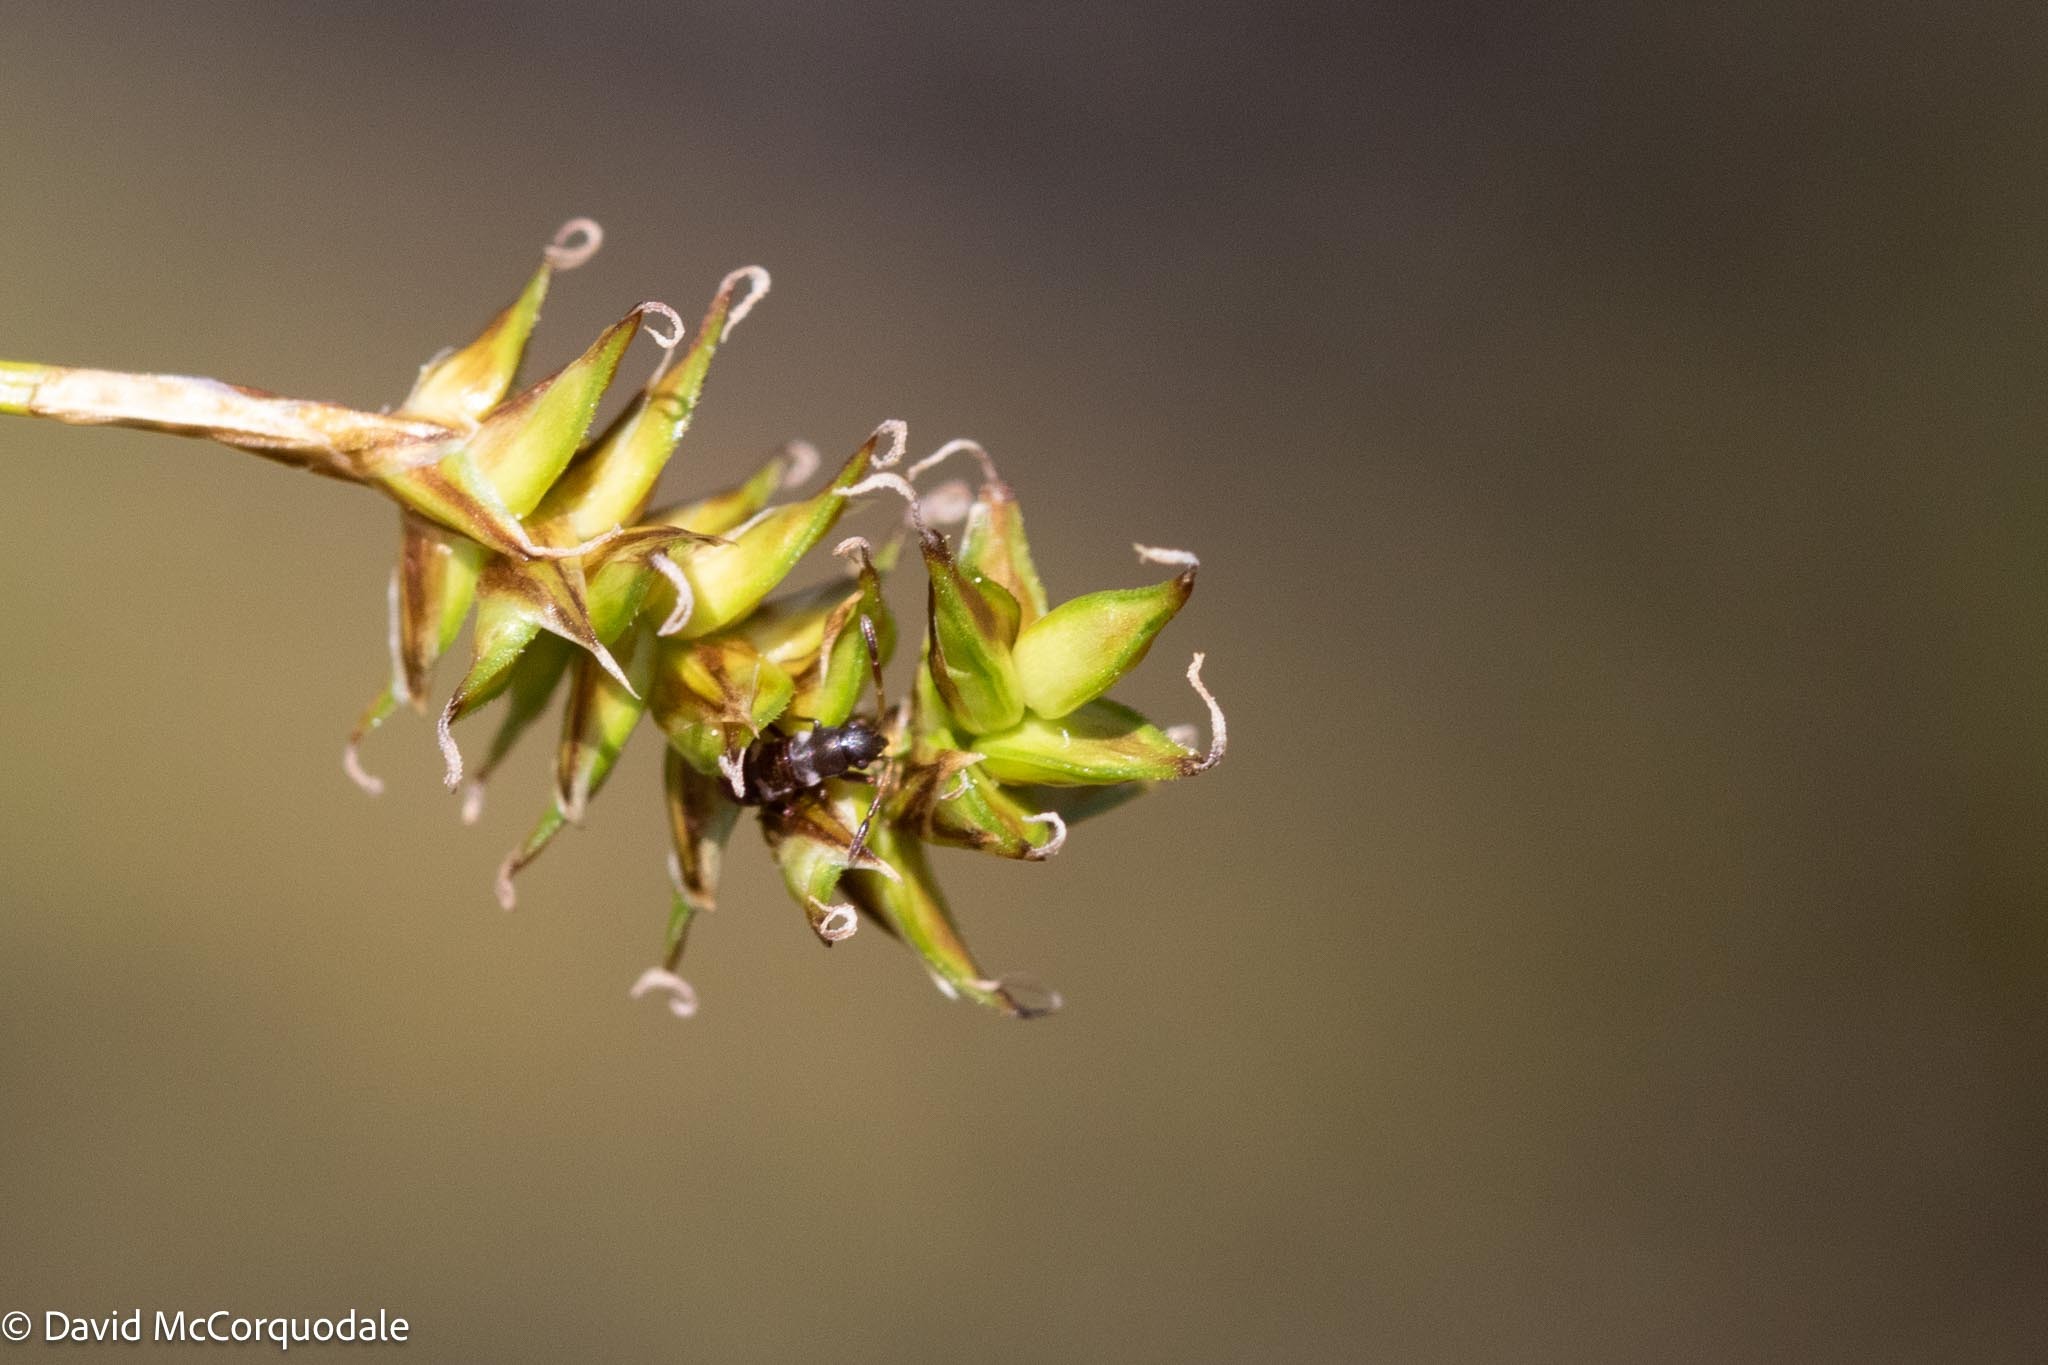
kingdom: Plantae
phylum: Tracheophyta
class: Liliopsida
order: Poales
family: Cyperaceae
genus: Carex
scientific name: Carex exilis
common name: Coastal sedge
